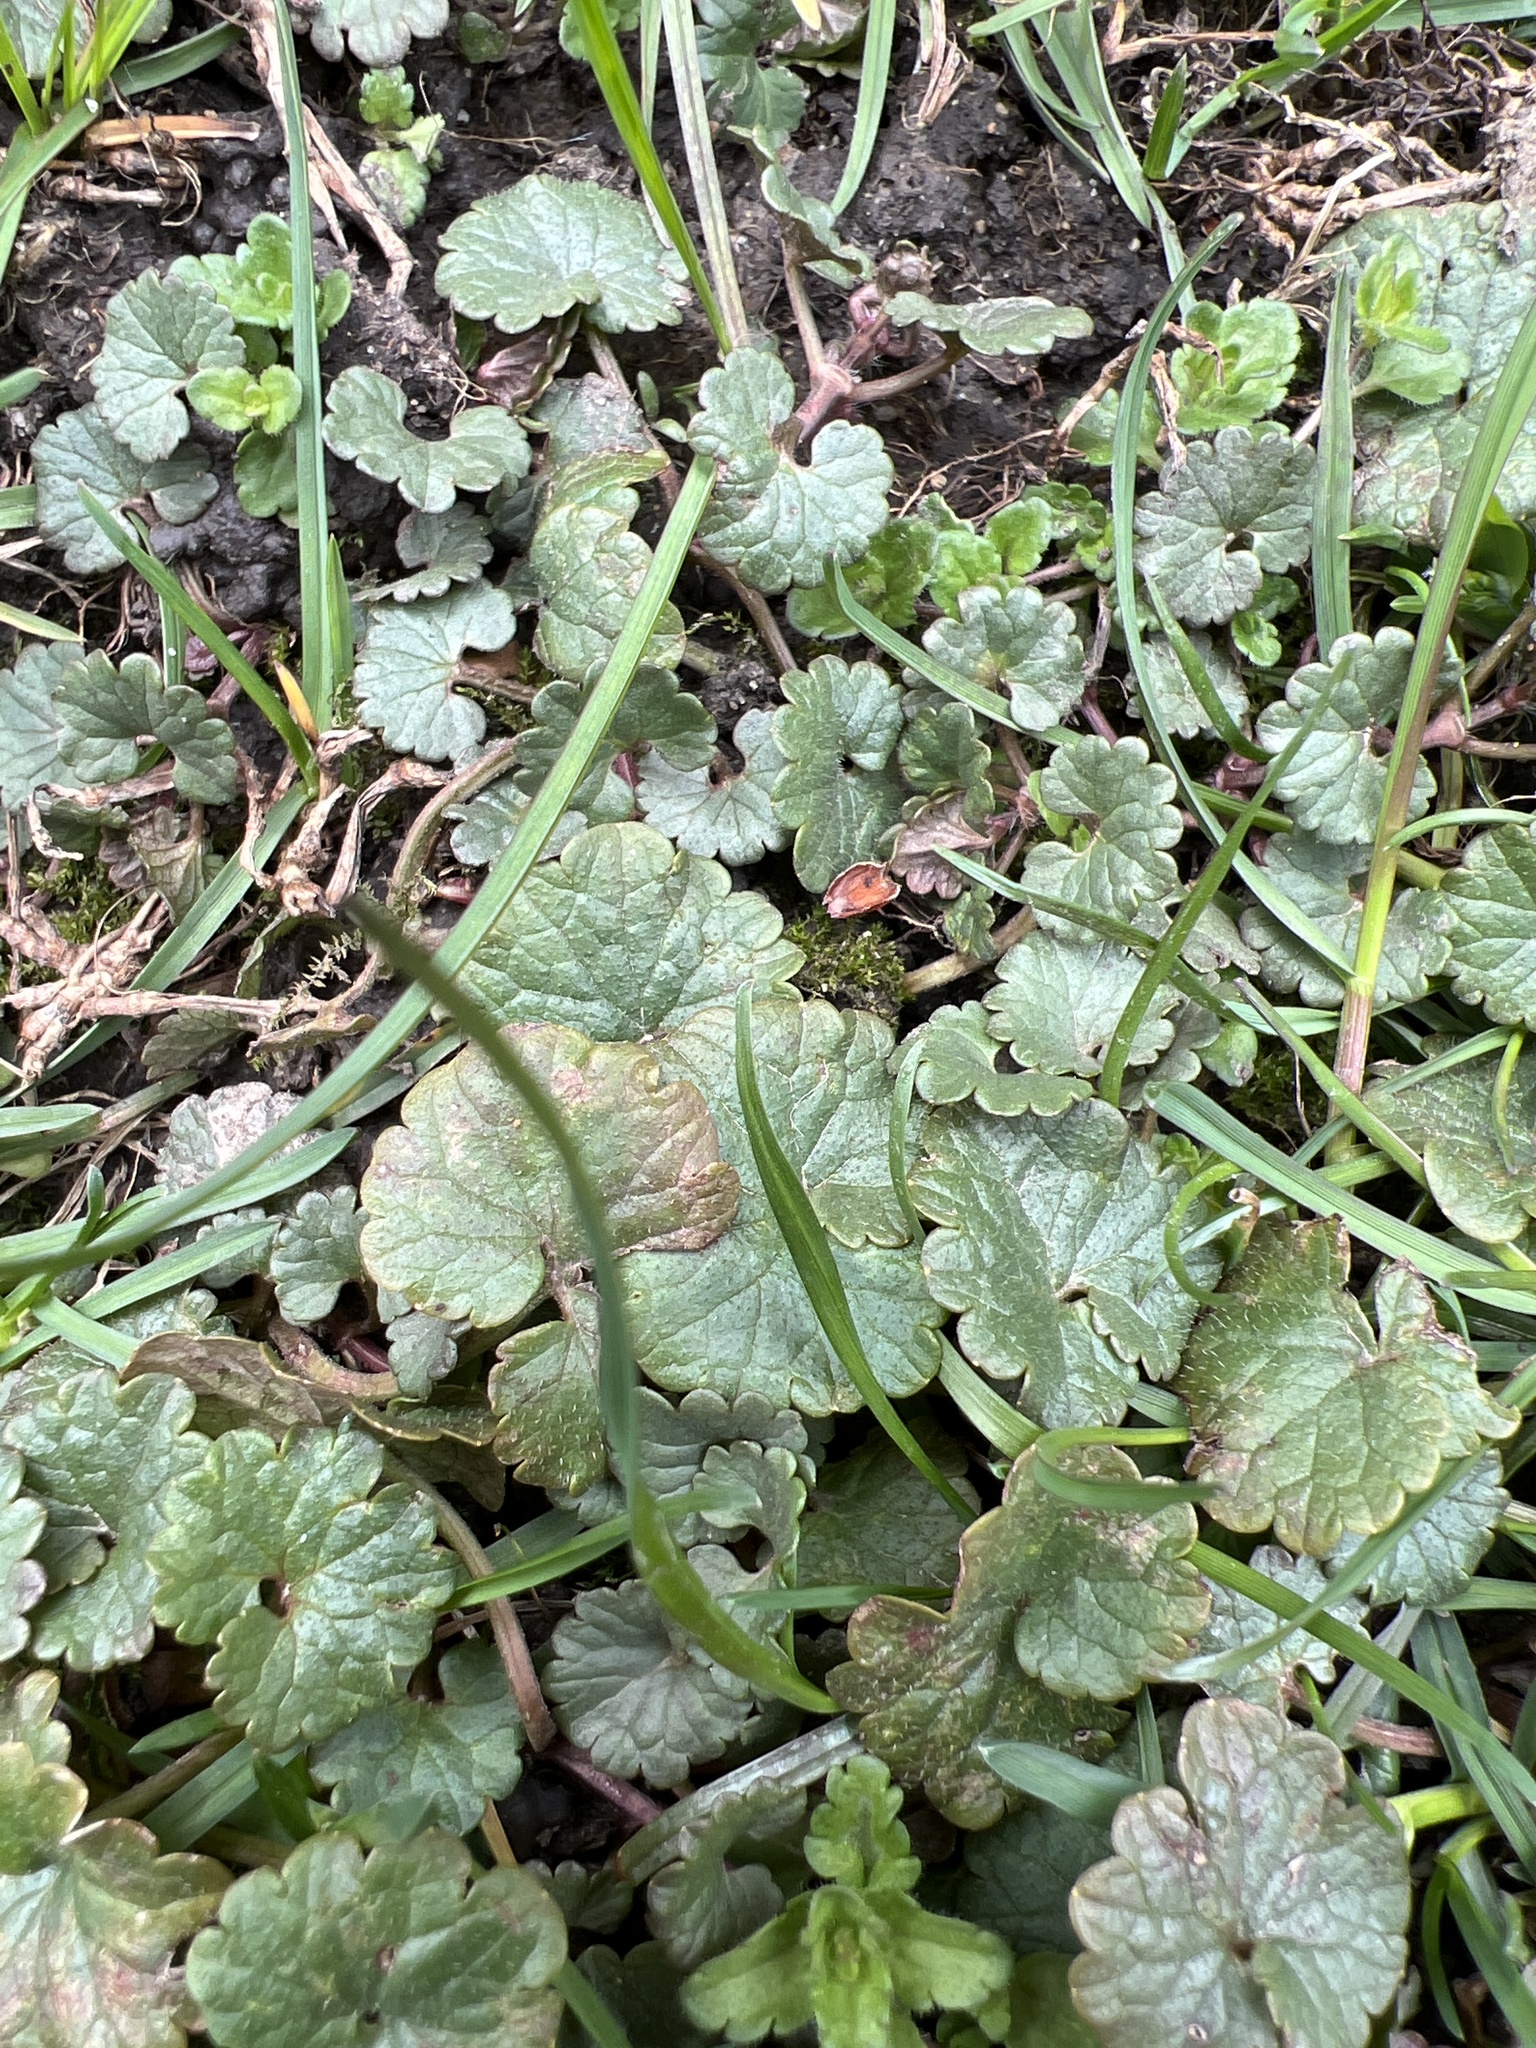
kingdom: Plantae
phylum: Tracheophyta
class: Magnoliopsida
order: Lamiales
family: Lamiaceae
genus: Glechoma
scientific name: Glechoma hederacea
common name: Ground ivy
